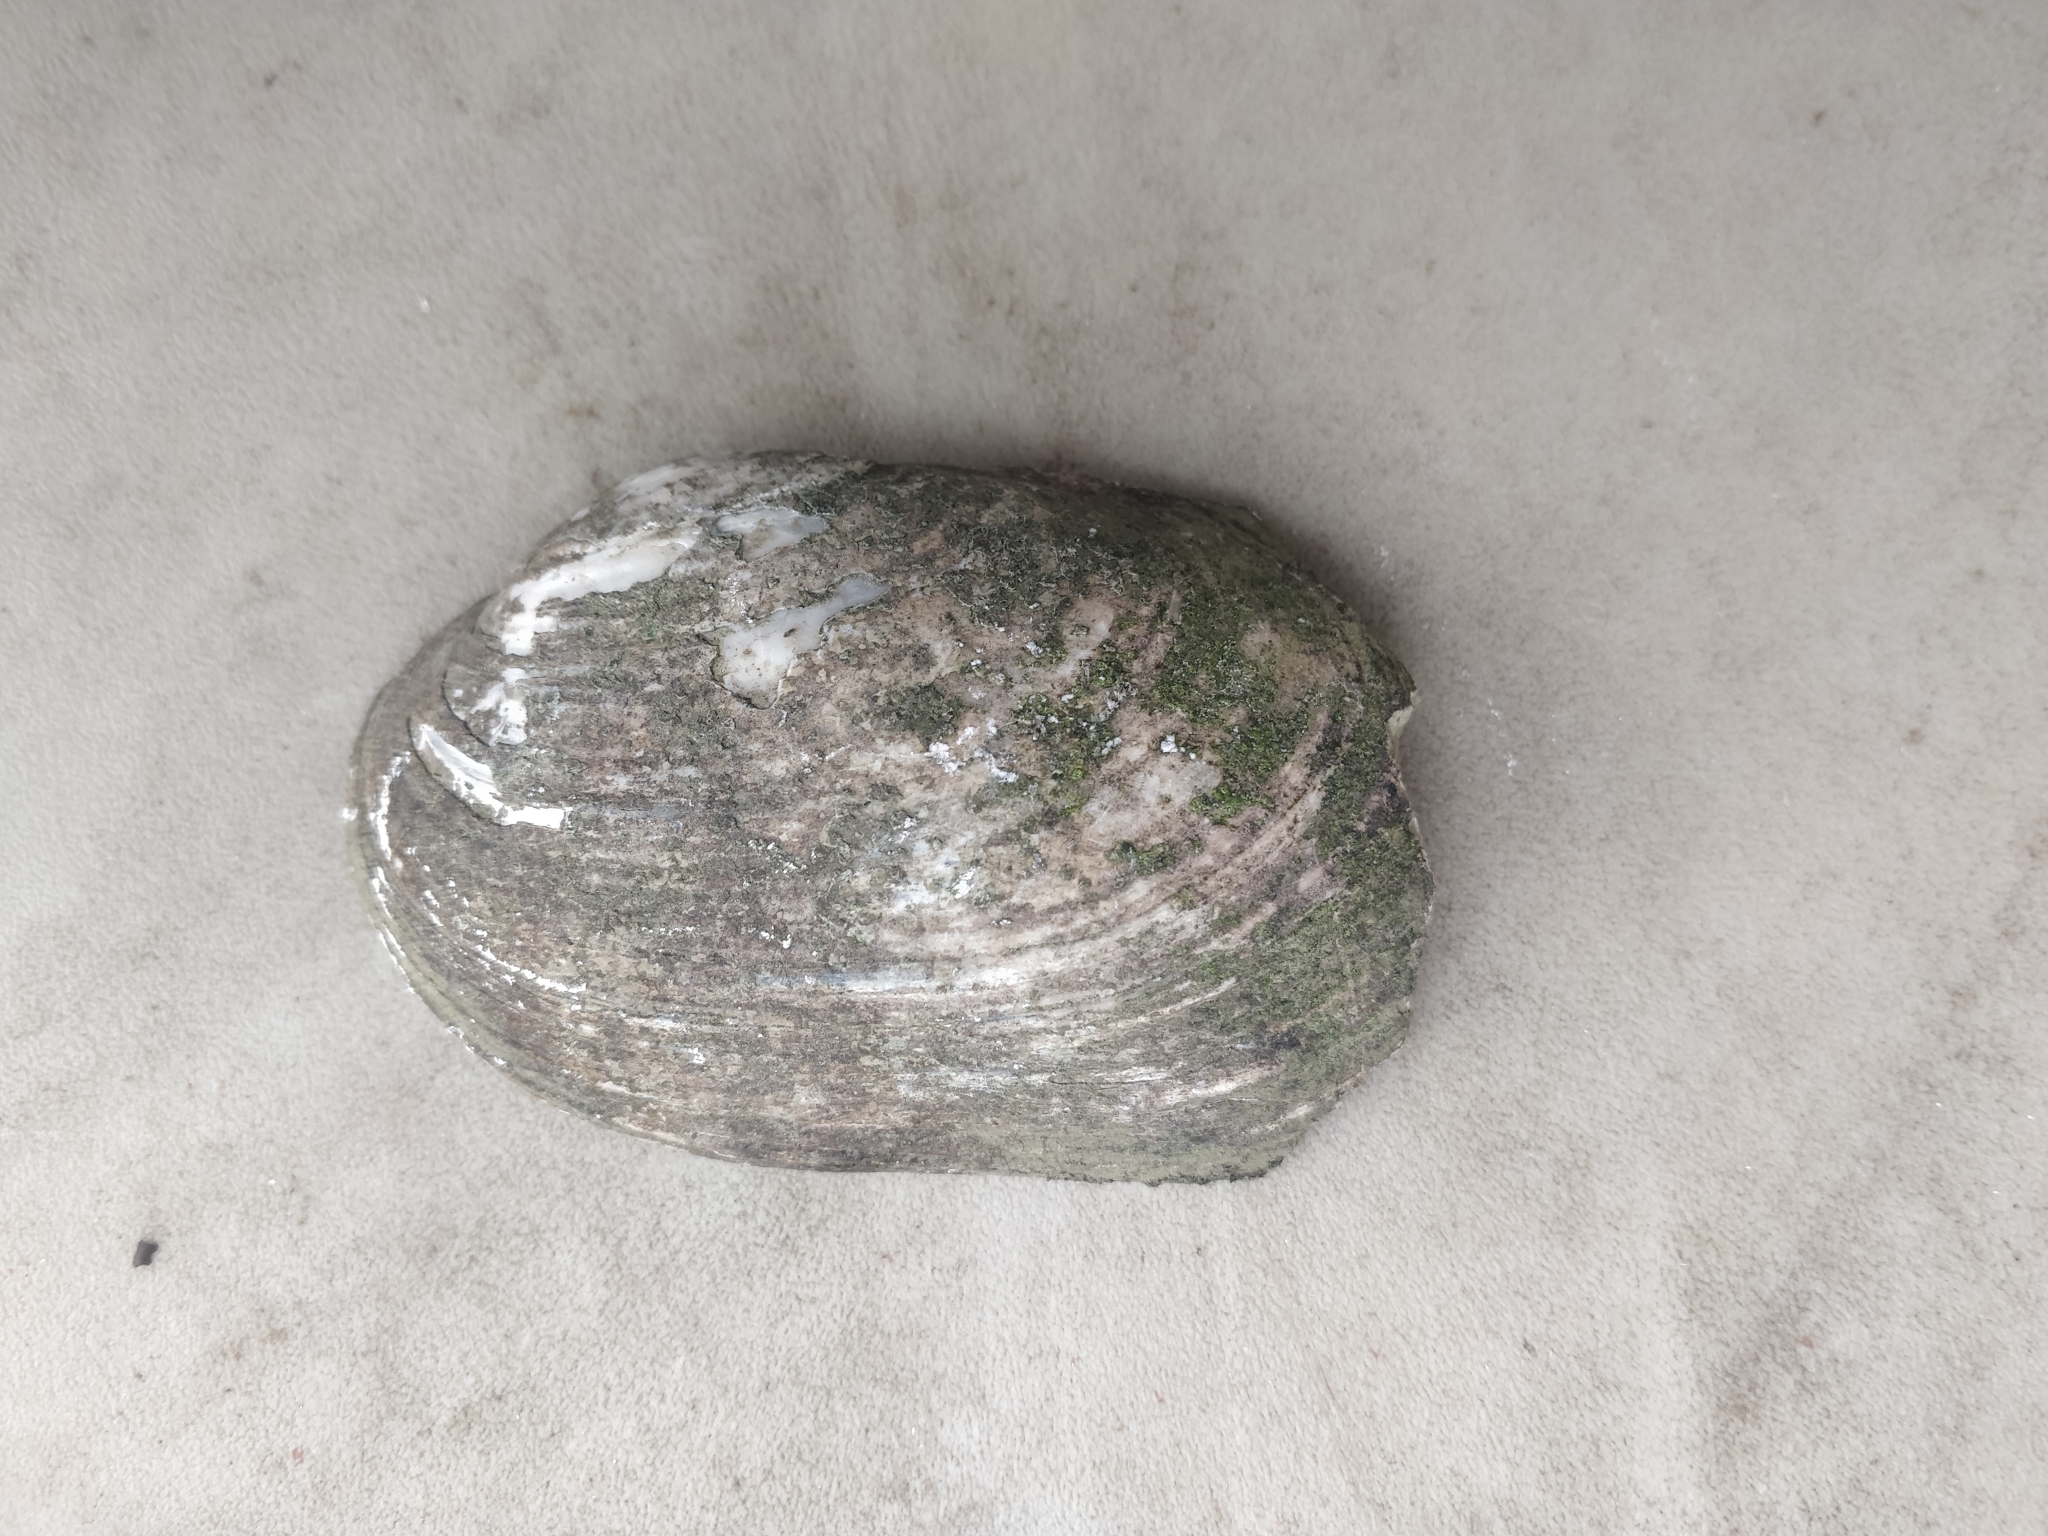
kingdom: Animalia
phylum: Mollusca
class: Bivalvia
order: Unionida
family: Unionidae
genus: Lampsilis
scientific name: Lampsilis siliquoidea
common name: Fatmucket
